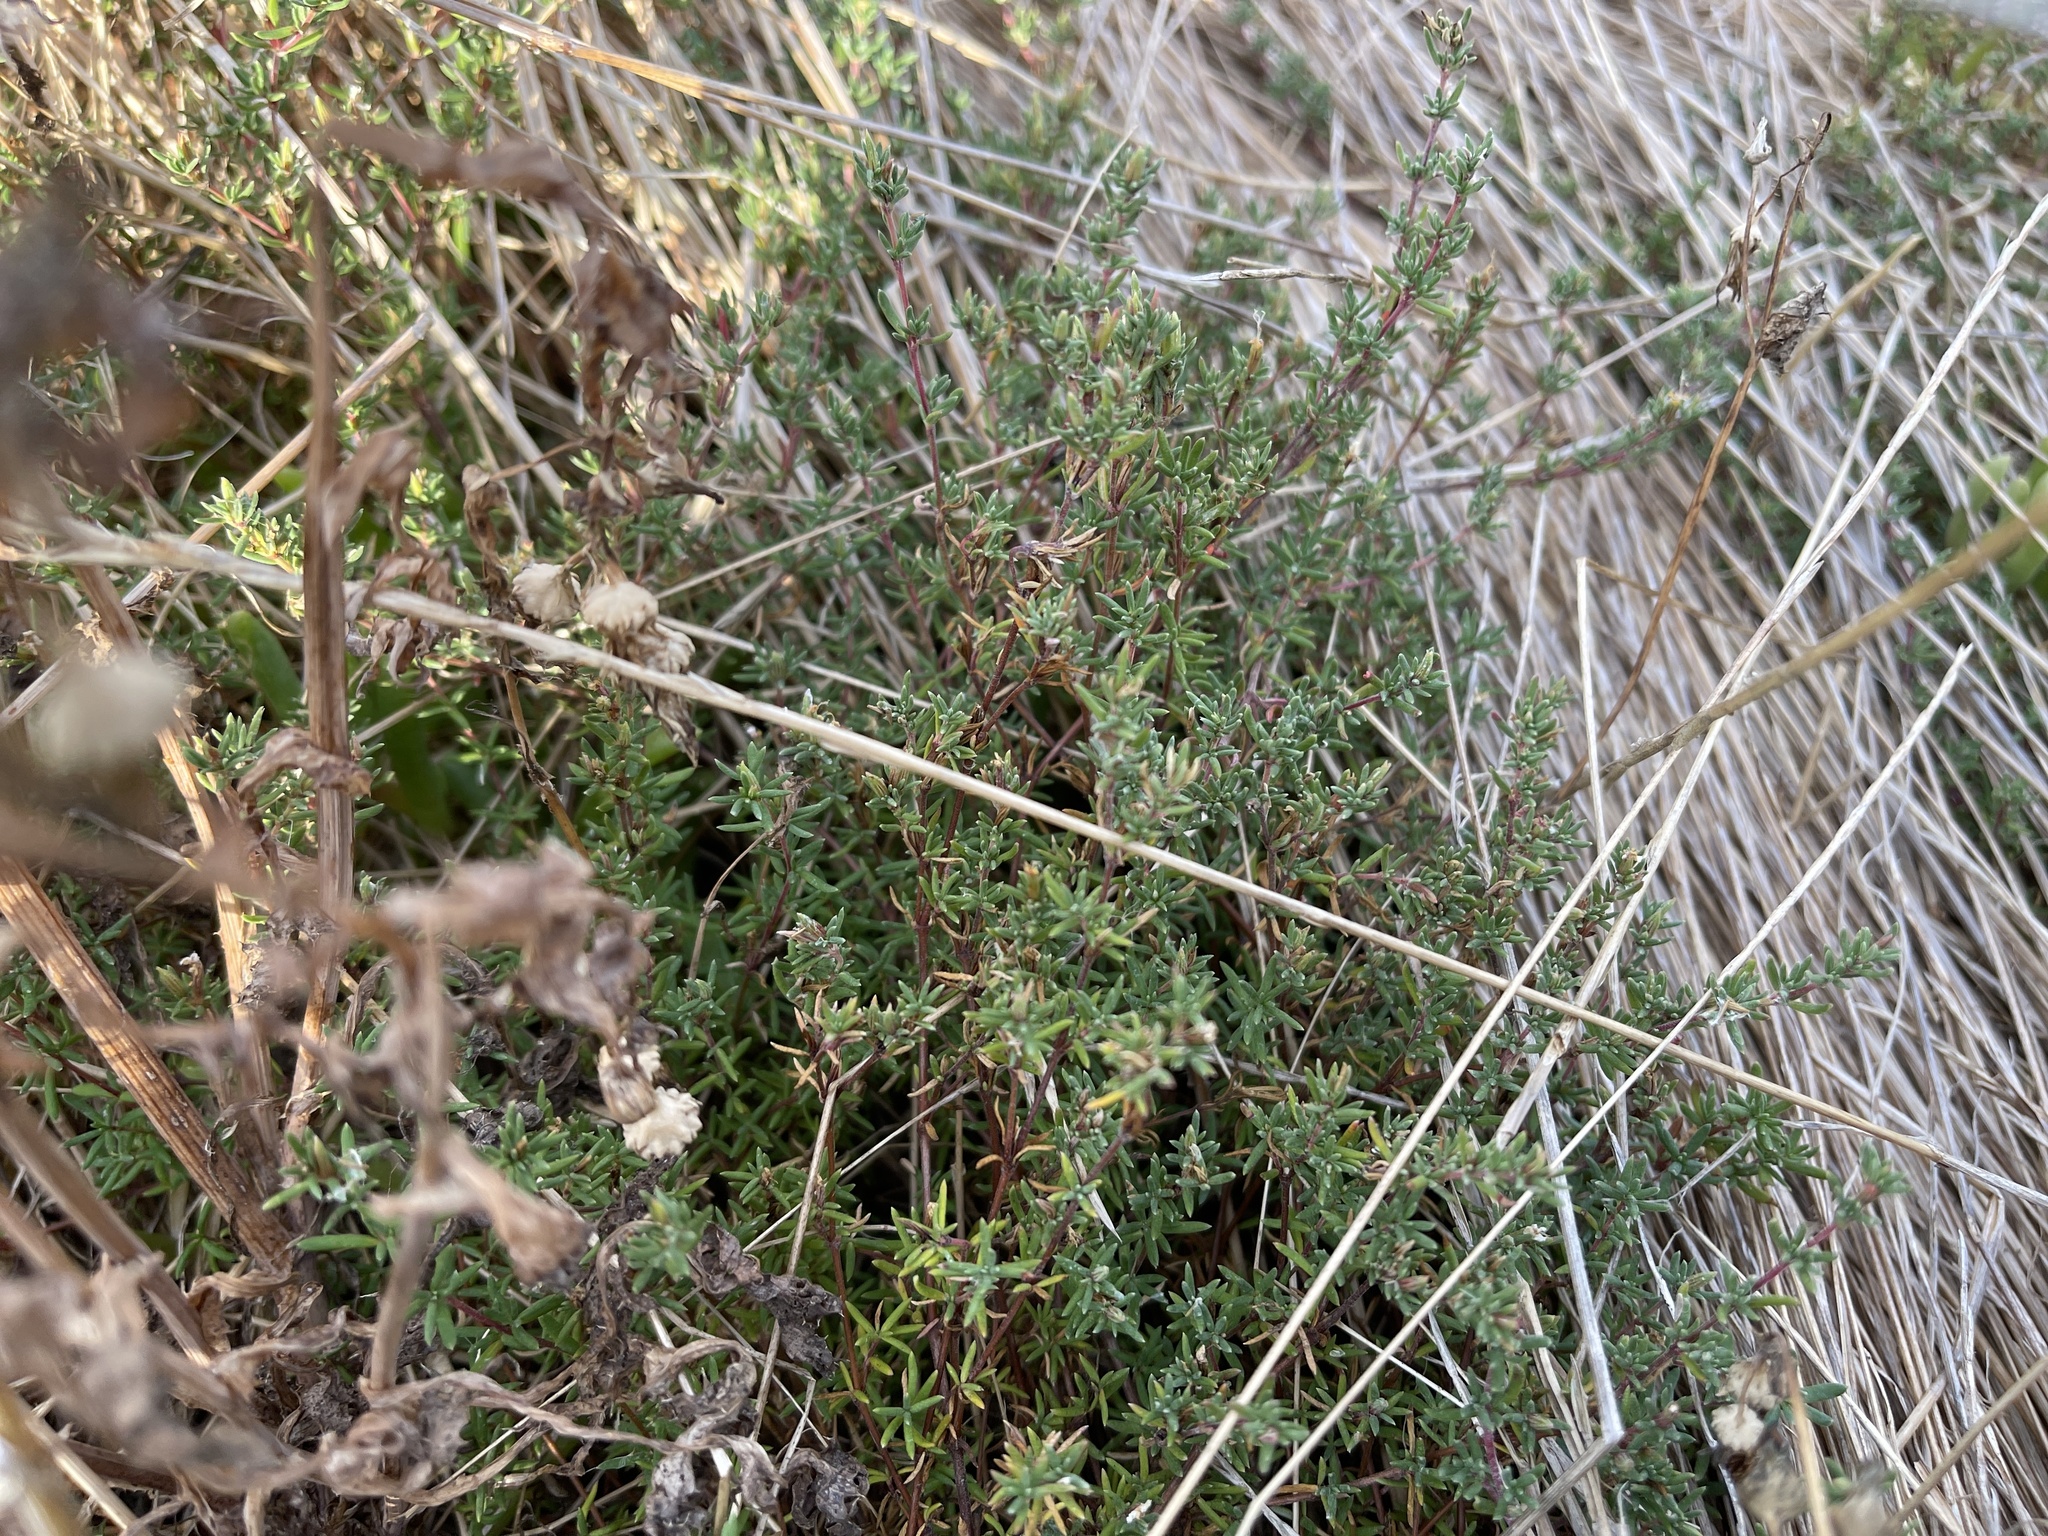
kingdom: Plantae
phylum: Tracheophyta
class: Magnoliopsida
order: Caryophyllales
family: Frankeniaceae
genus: Frankenia
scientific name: Frankenia pauciflora
